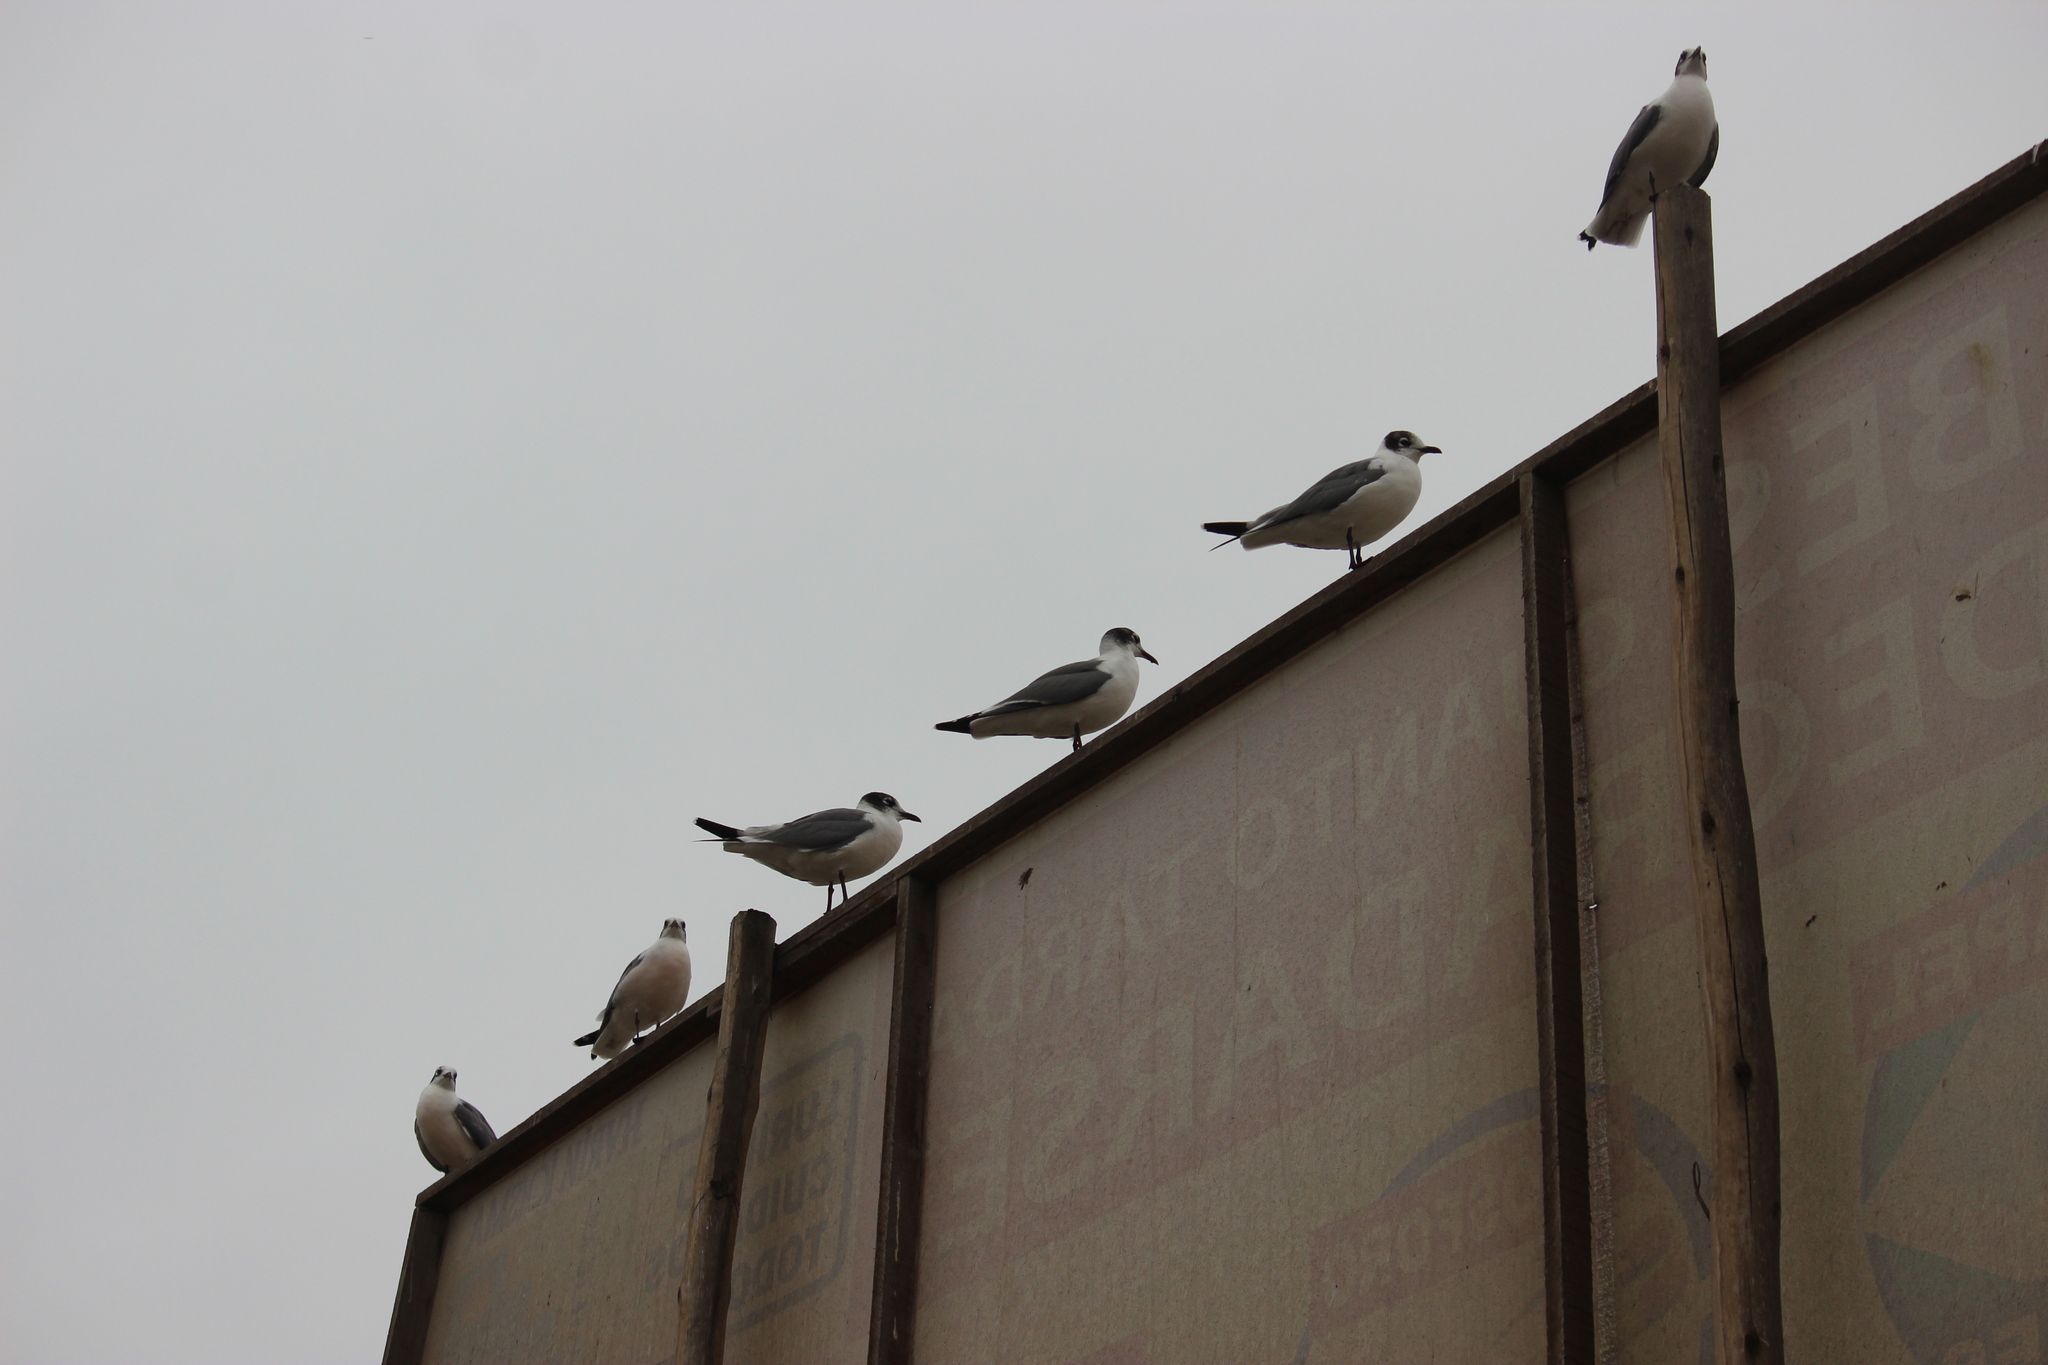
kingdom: Animalia
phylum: Chordata
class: Aves
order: Charadriiformes
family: Laridae
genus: Leucophaeus
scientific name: Leucophaeus pipixcan
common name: Franklin's gull
